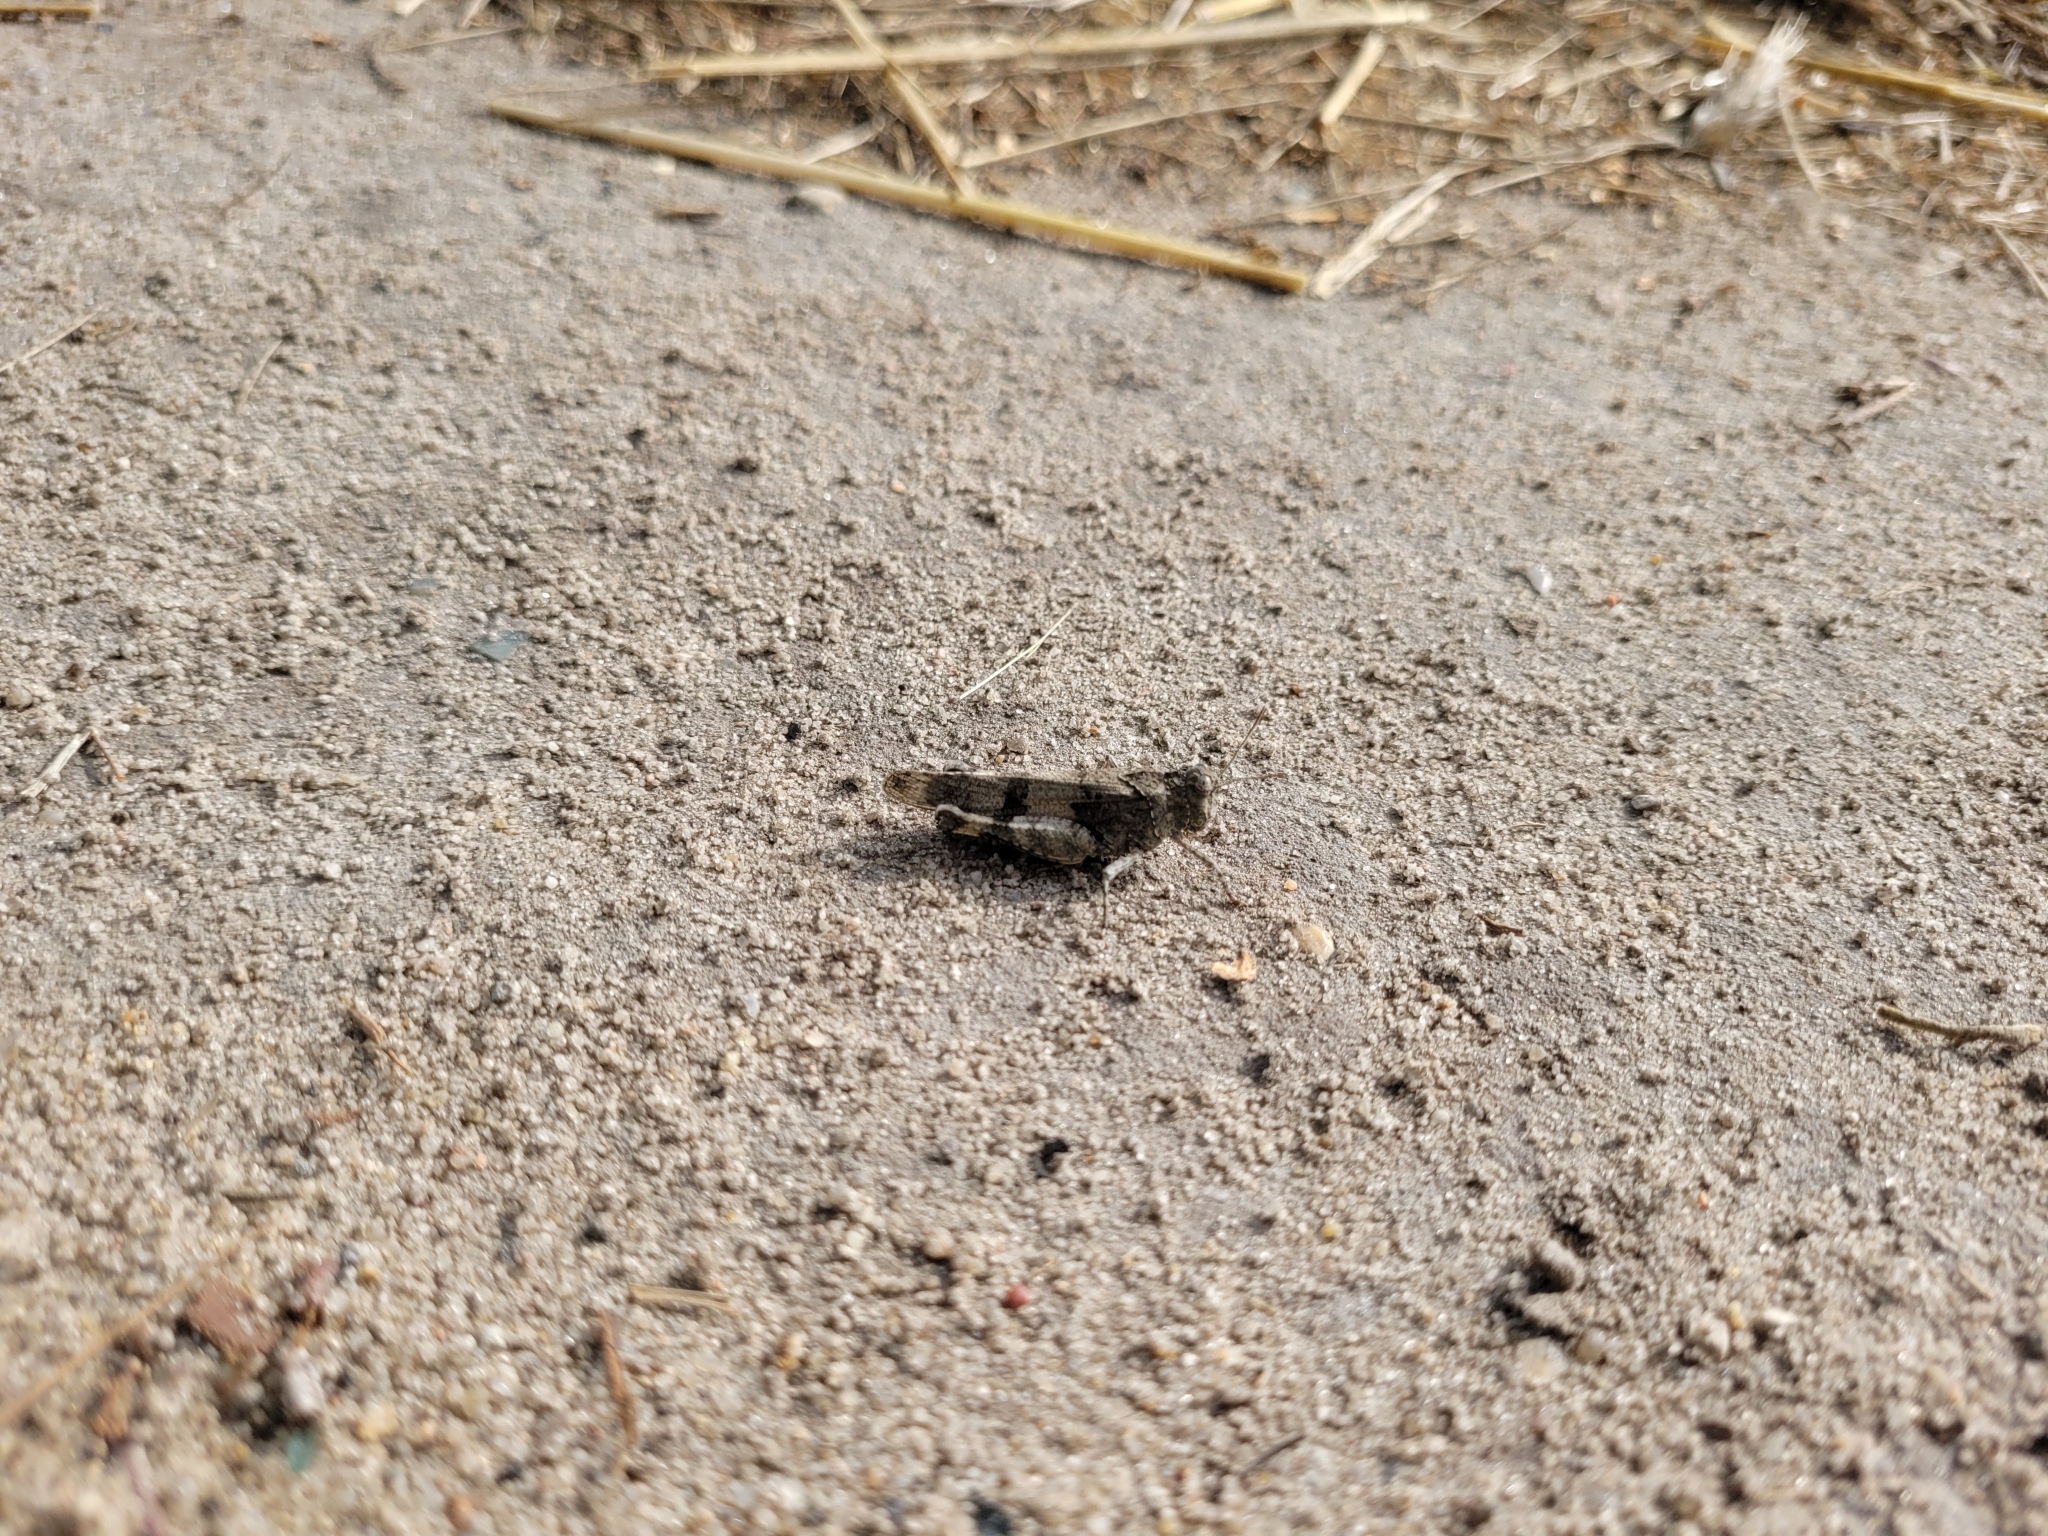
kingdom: Animalia
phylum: Arthropoda
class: Insecta
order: Orthoptera
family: Acrididae
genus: Oedipoda
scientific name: Oedipoda caerulescens
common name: Blue-winged grasshopper
